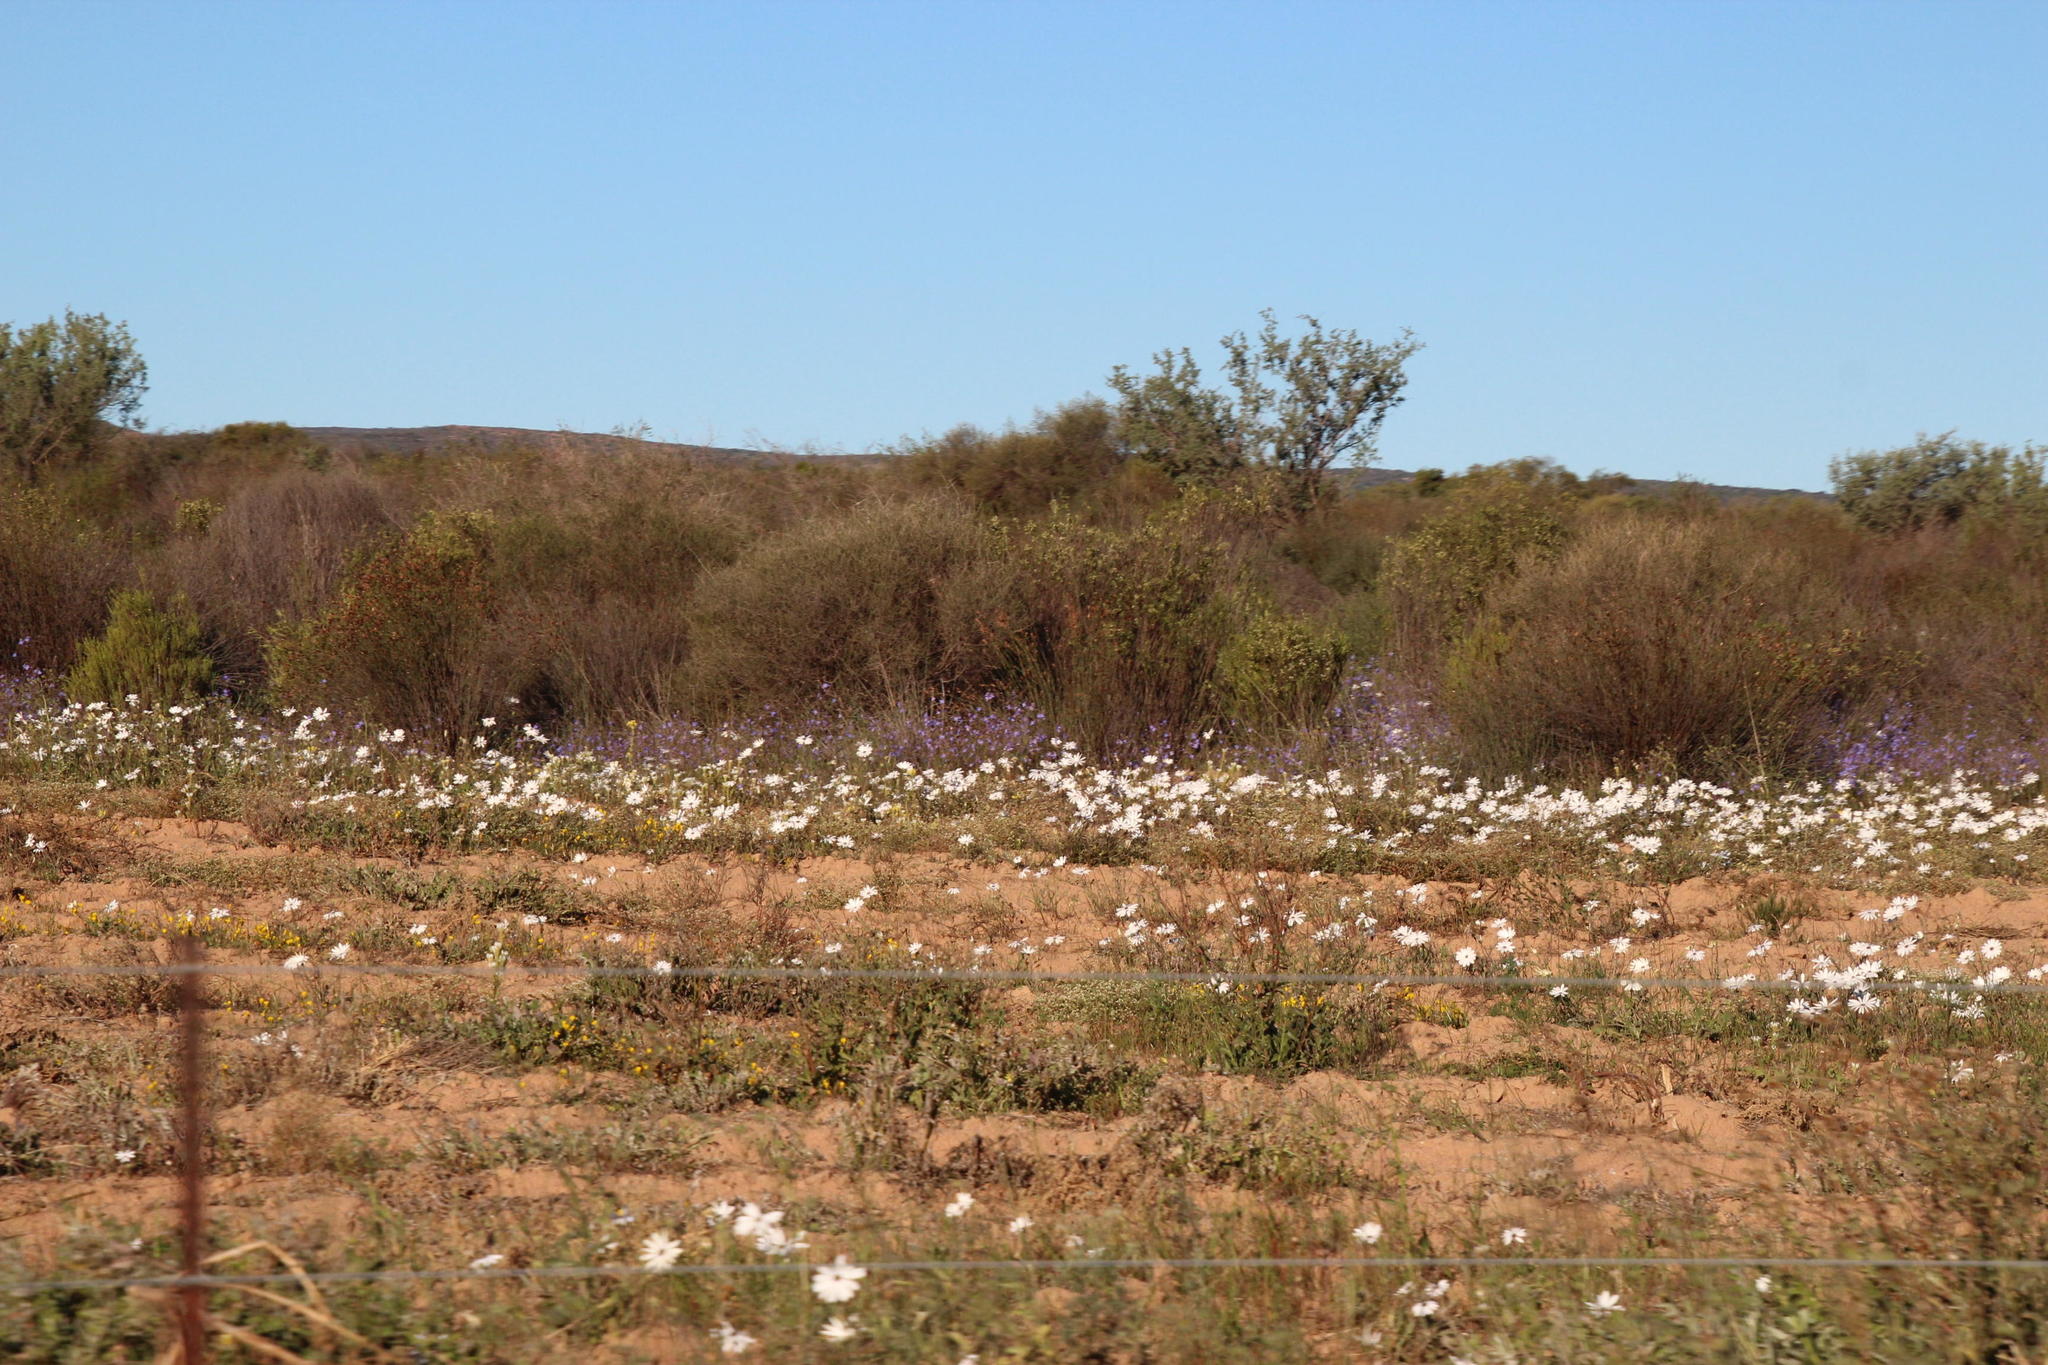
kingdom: Plantae
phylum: Tracheophyta
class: Magnoliopsida
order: Asterales
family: Asteraceae
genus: Dimorphotheca
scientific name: Dimorphotheca pluvialis
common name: Weather prophet
